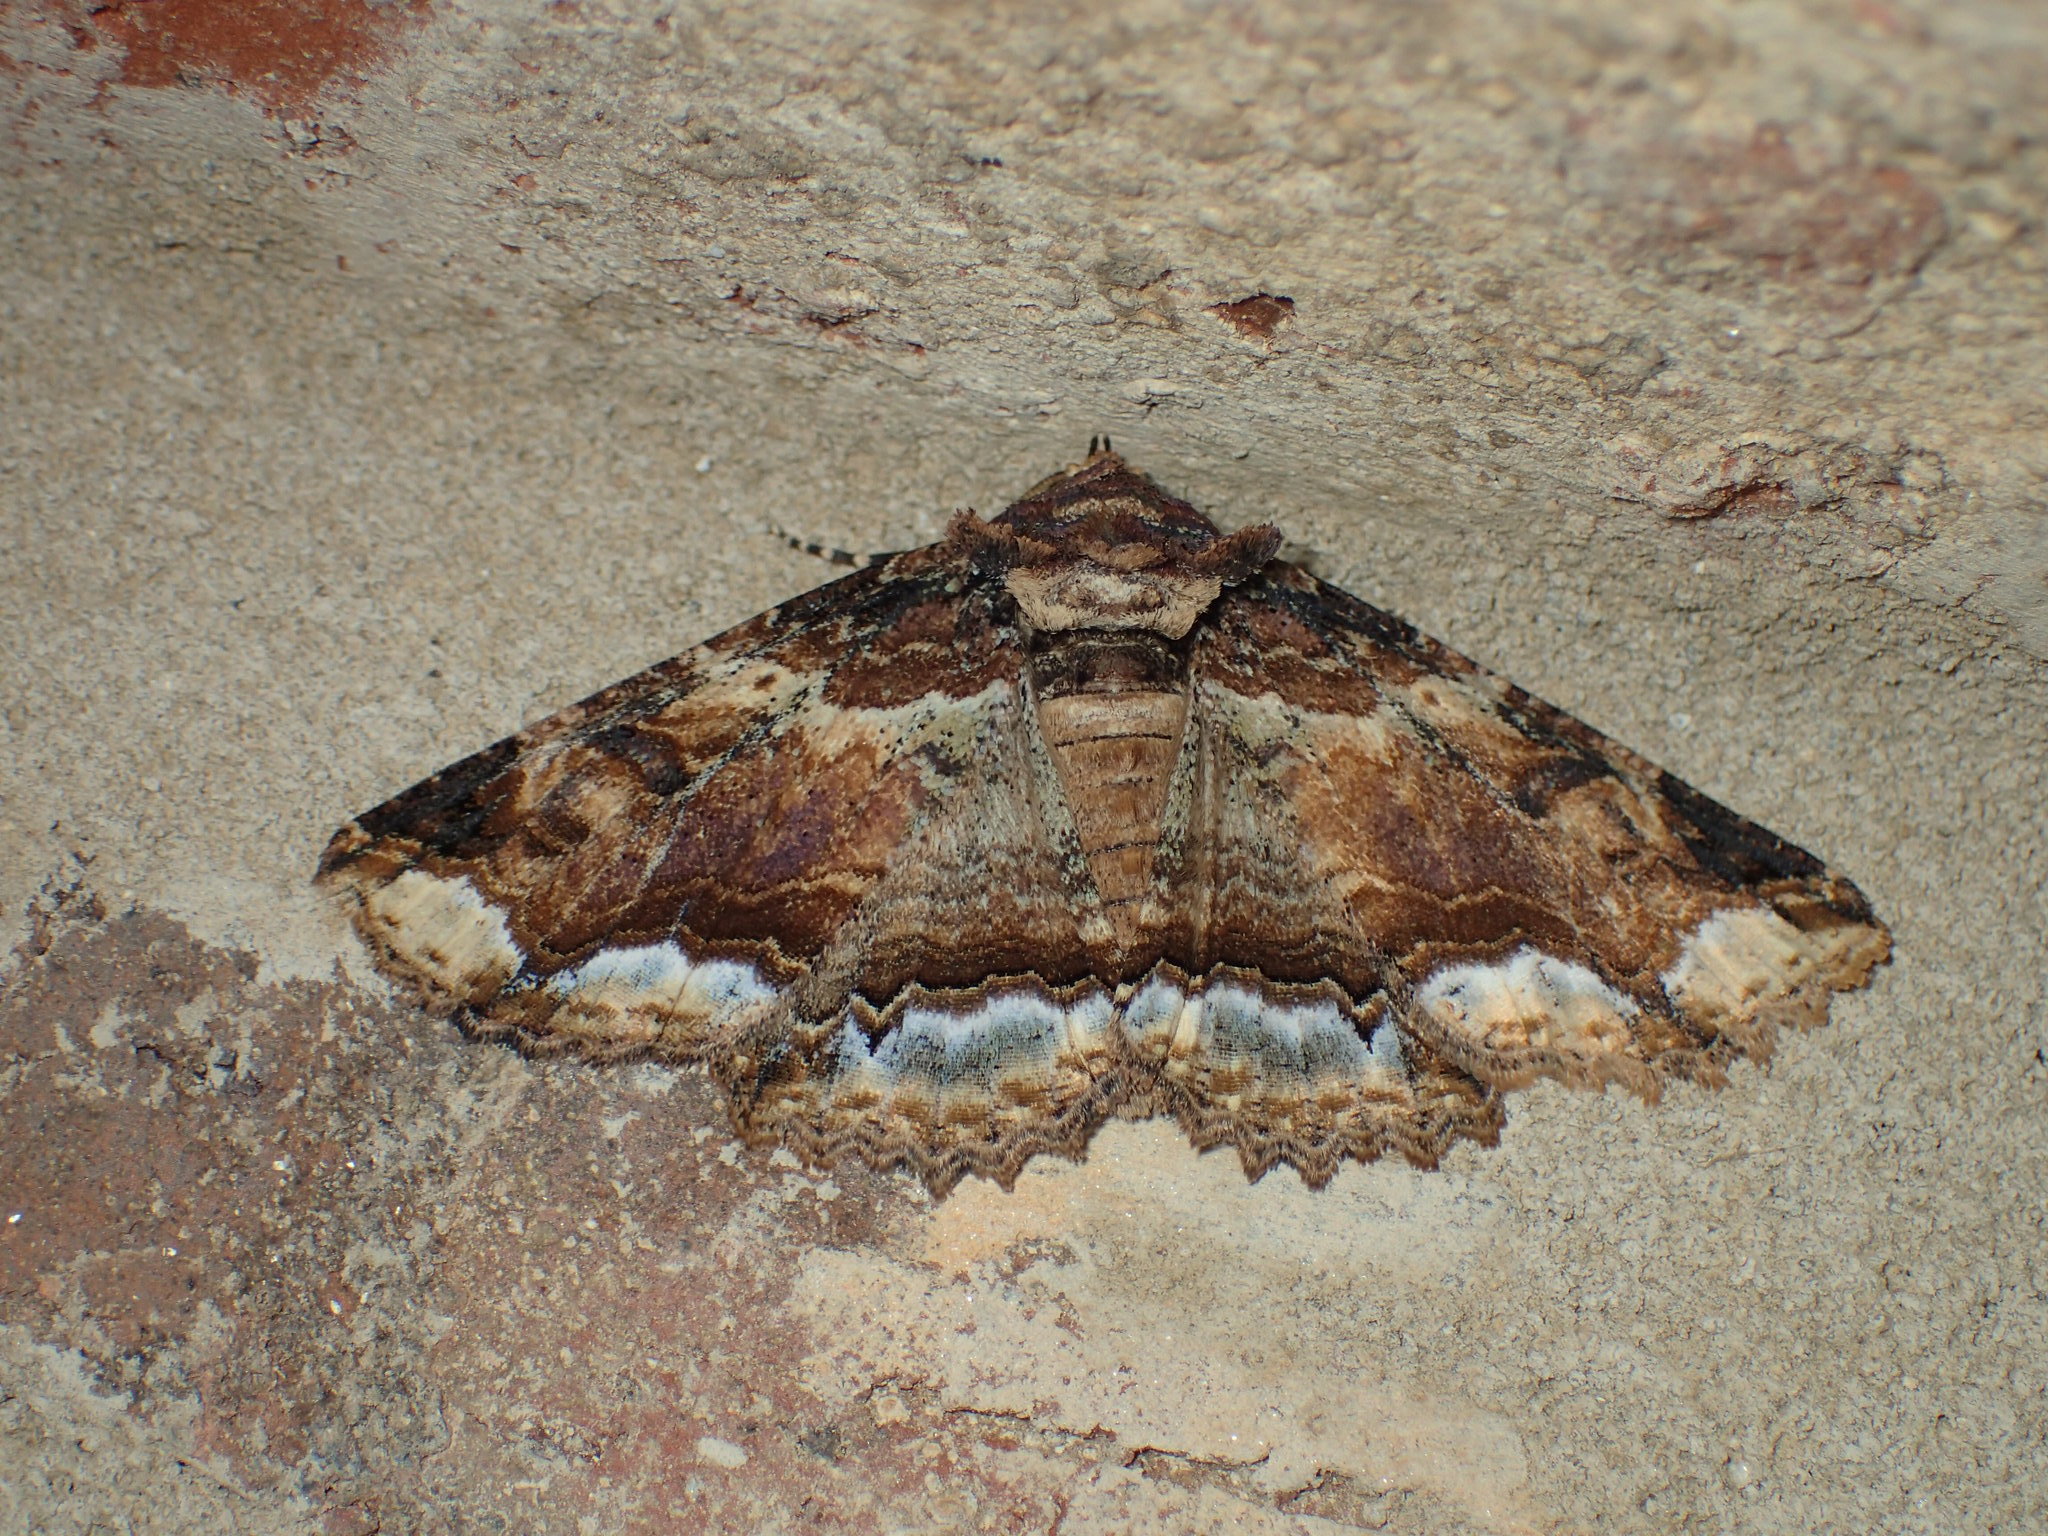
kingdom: Animalia
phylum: Arthropoda
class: Insecta
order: Lepidoptera
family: Erebidae
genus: Zale
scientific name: Zale lunata
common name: Lunate zale moth
